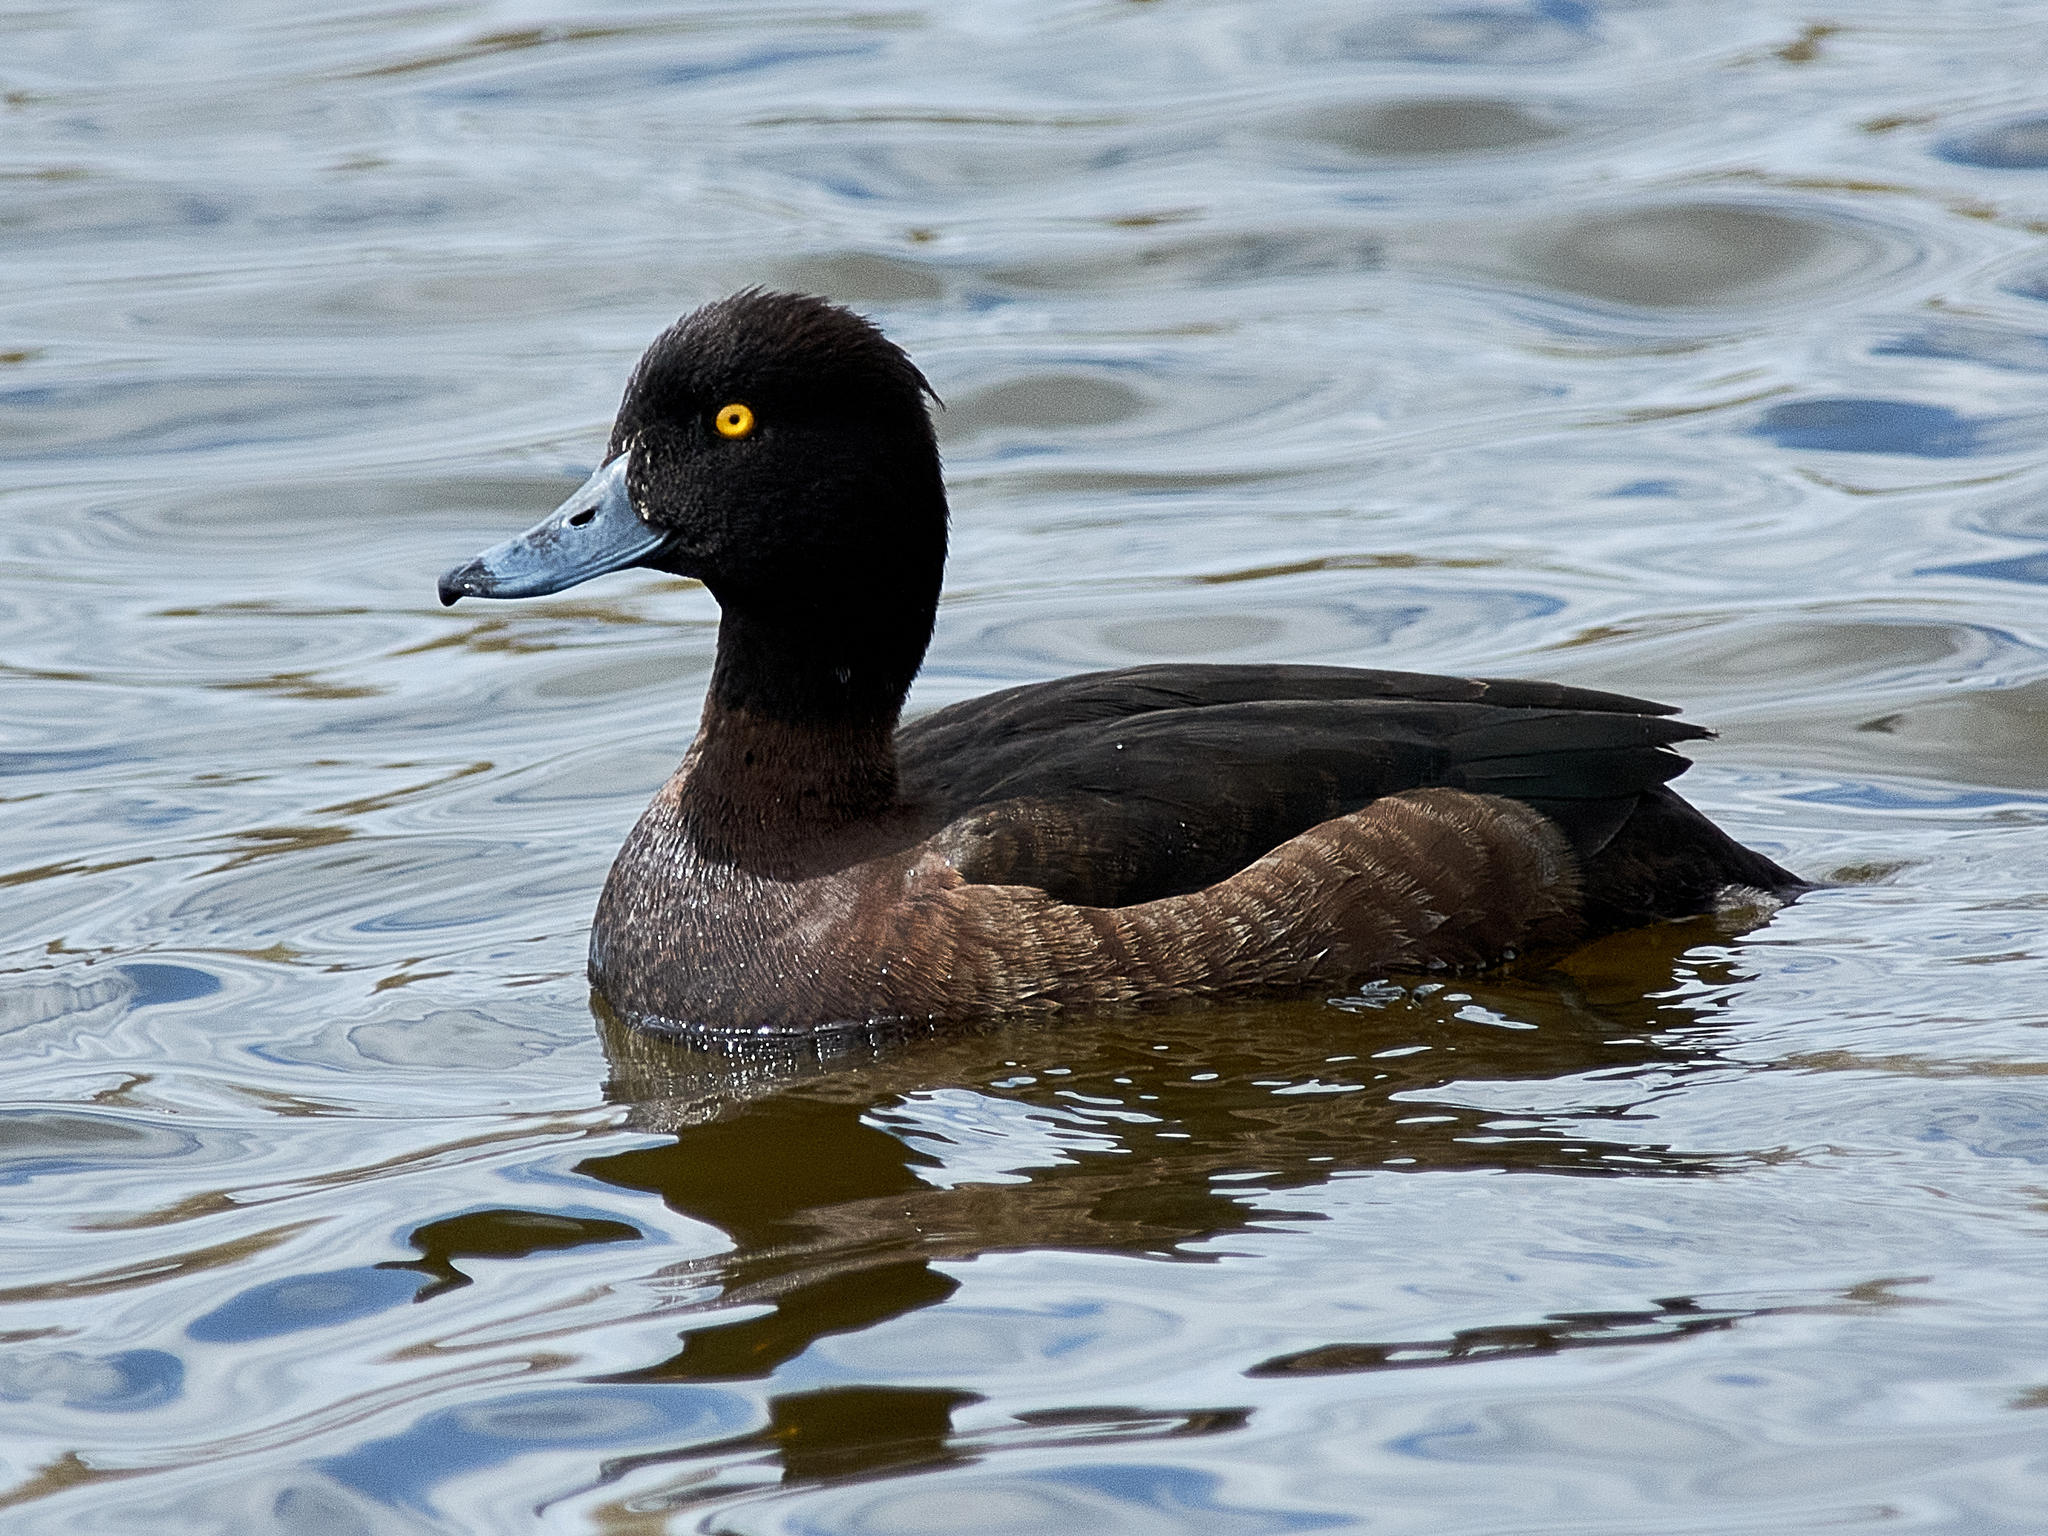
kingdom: Animalia
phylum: Chordata
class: Aves
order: Anseriformes
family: Anatidae
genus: Aythya
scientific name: Aythya fuligula
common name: Tufted duck
